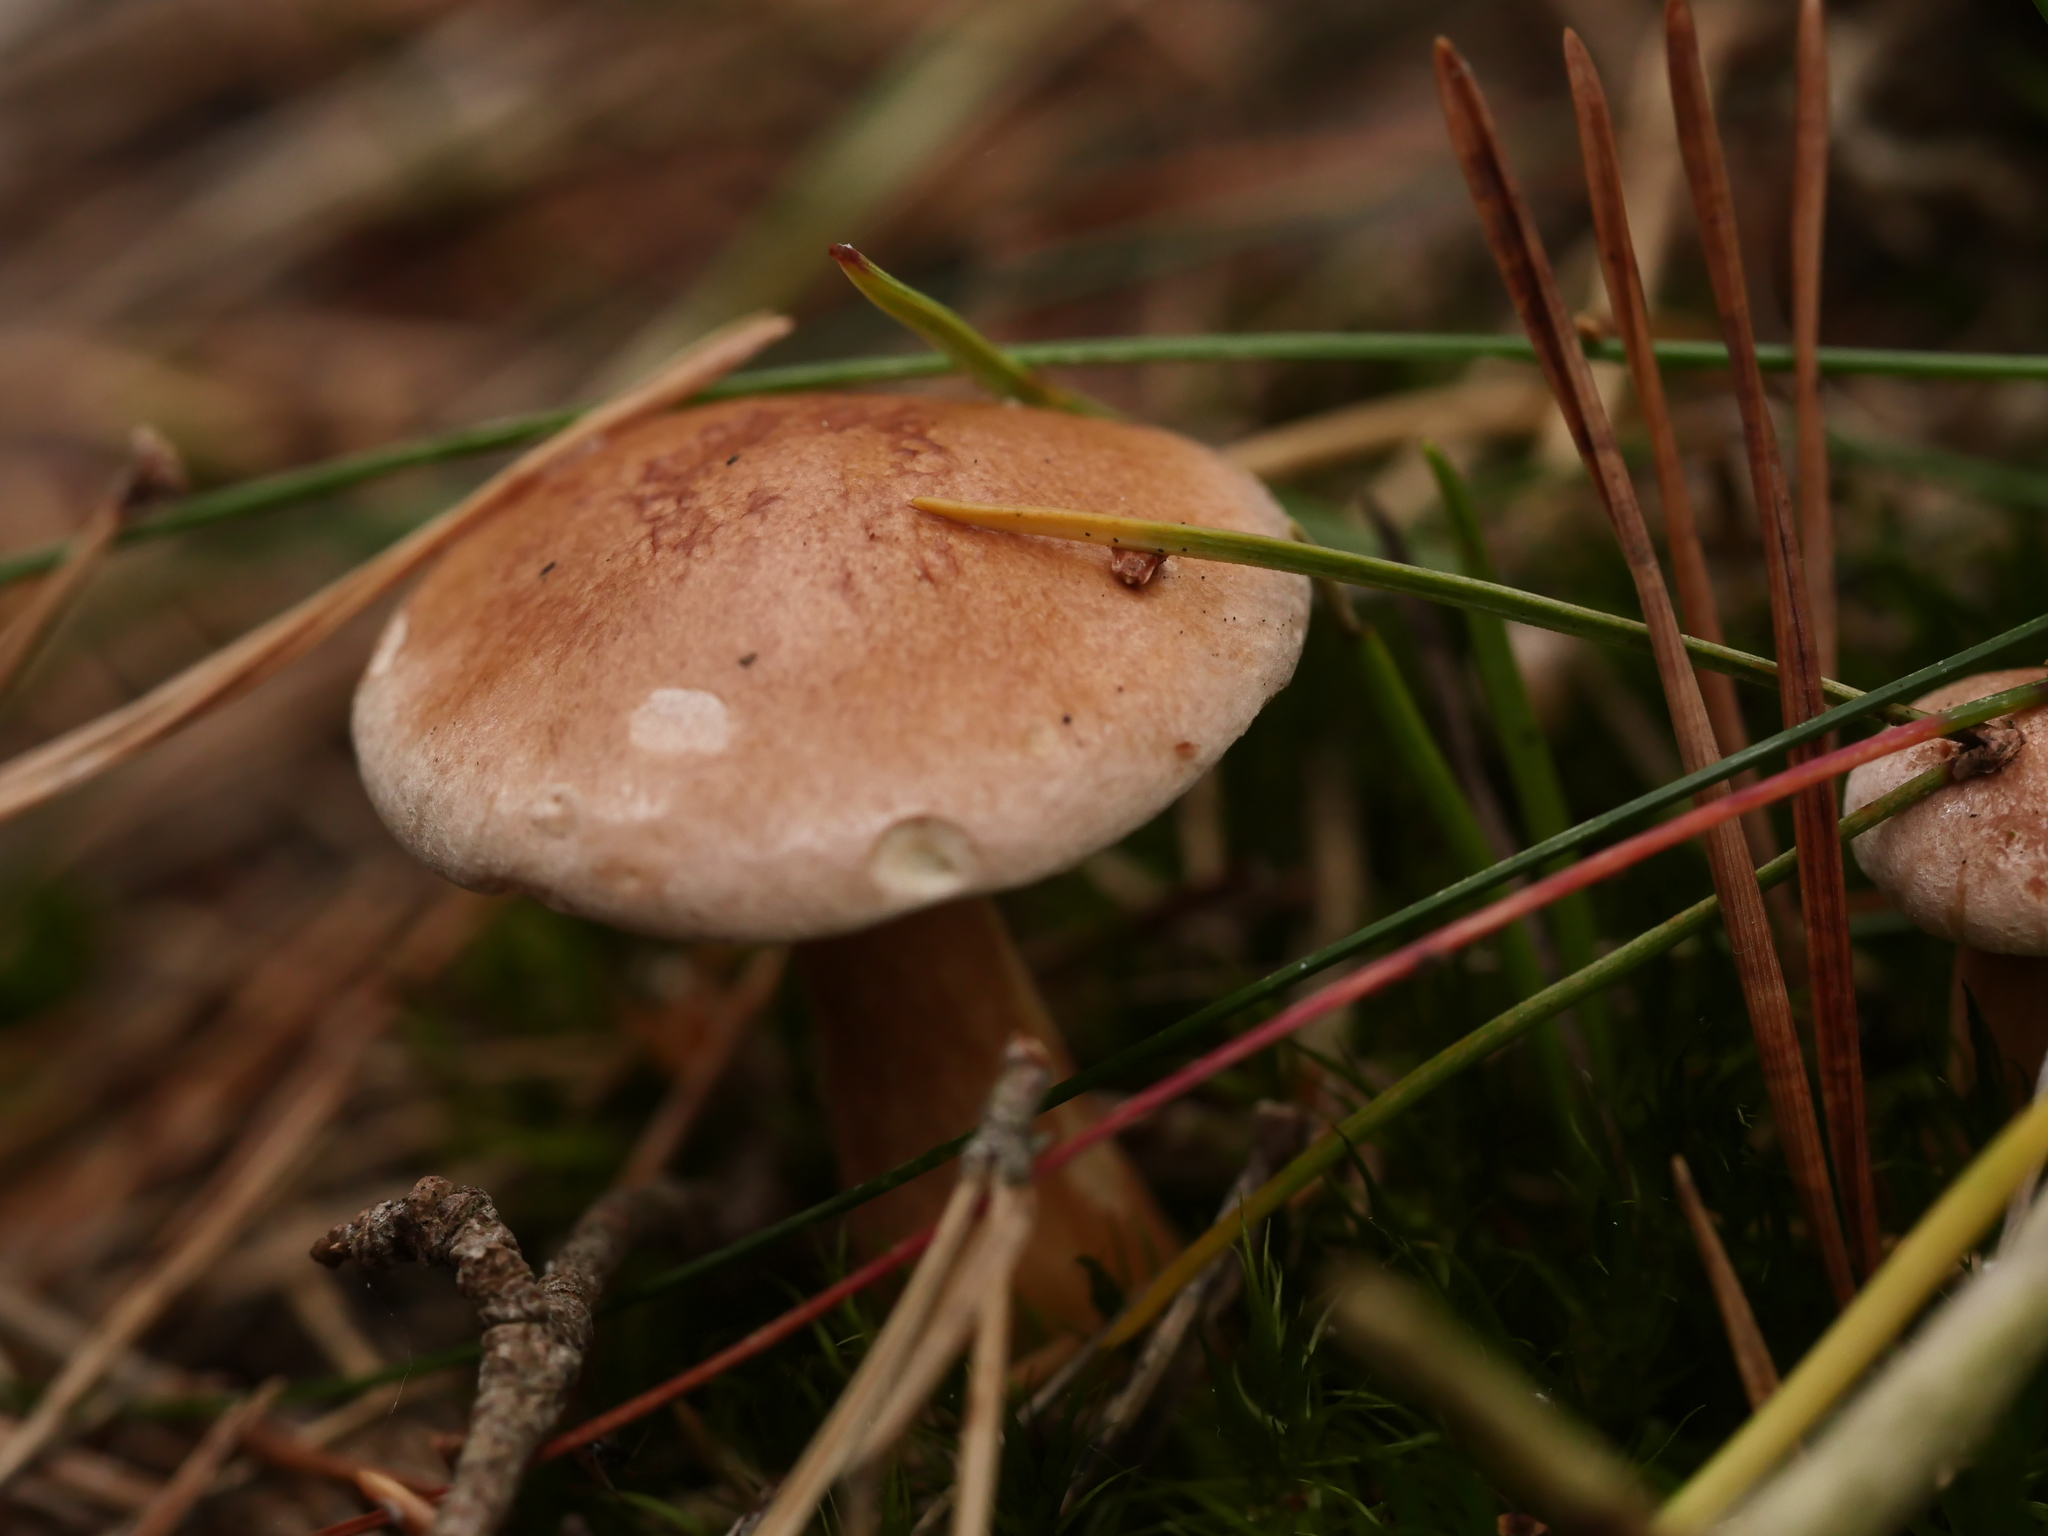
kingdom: Fungi
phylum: Basidiomycota
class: Agaricomycetes
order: Boletales
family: Suillaceae
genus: Suillus
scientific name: Suillus bovinus
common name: Bovine bolete
